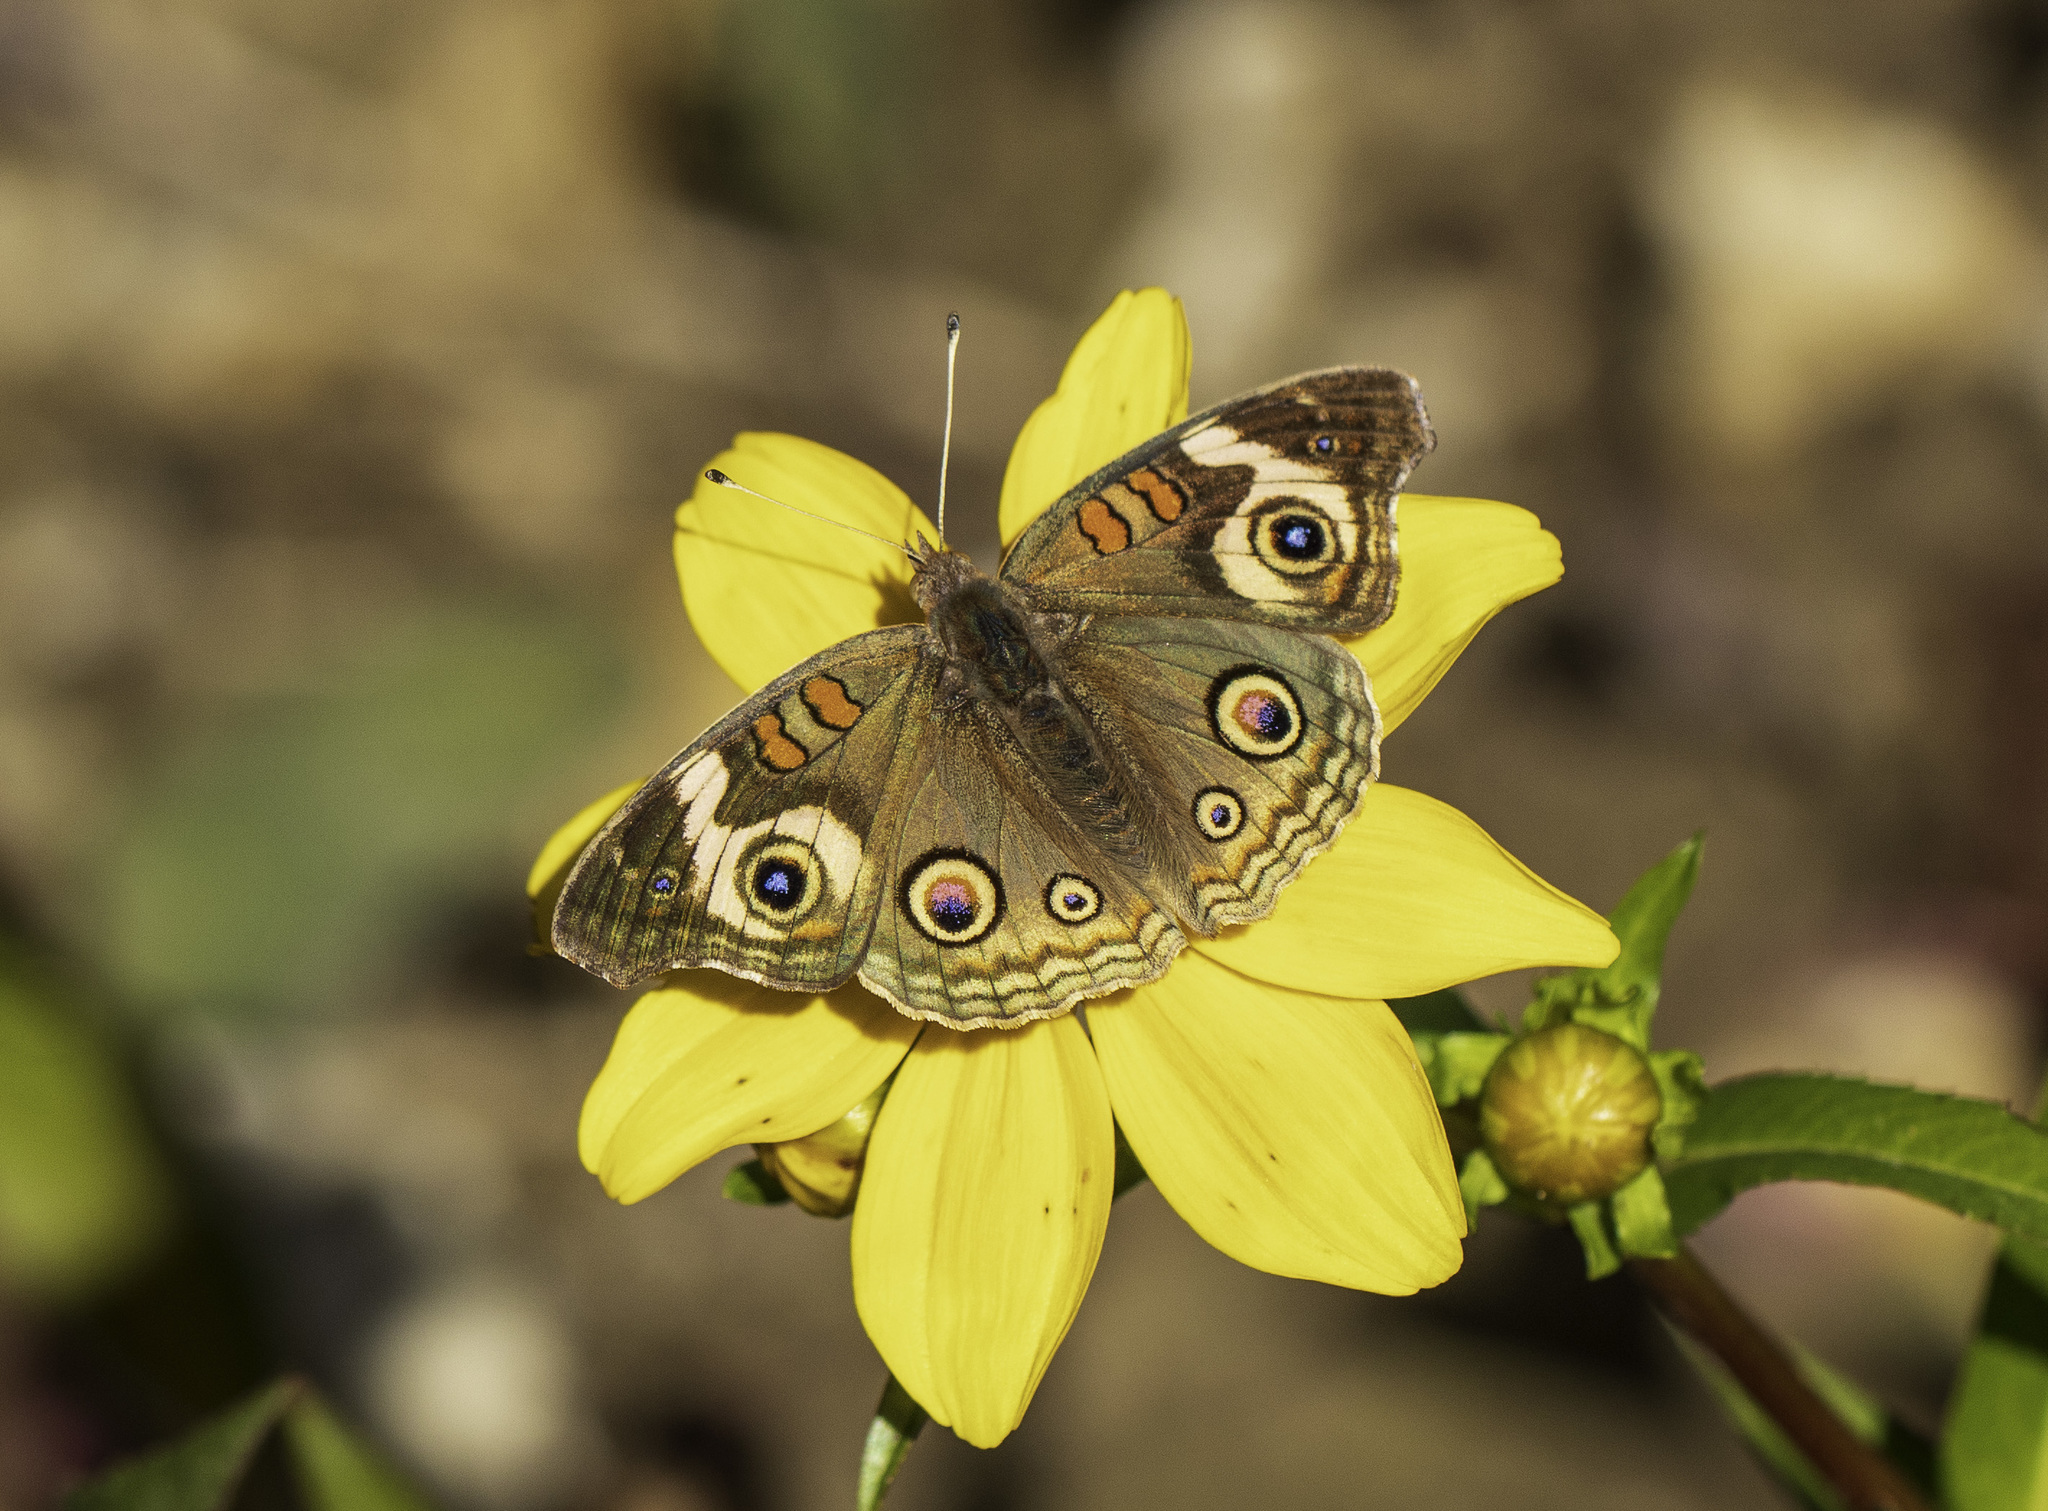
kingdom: Animalia
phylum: Arthropoda
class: Insecta
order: Lepidoptera
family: Nymphalidae
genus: Junonia
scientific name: Junonia grisea
